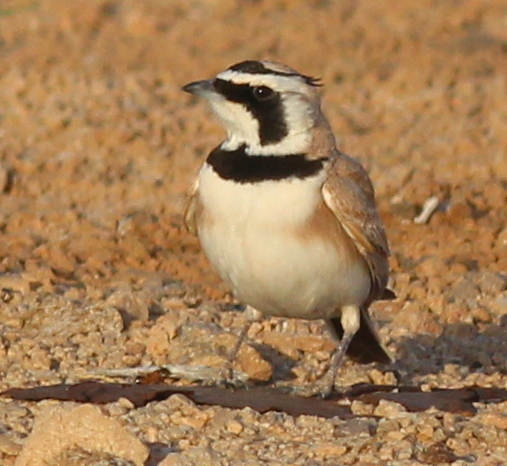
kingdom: Animalia
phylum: Chordata
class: Aves
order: Passeriformes
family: Alaudidae
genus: Eremophila
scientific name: Eremophila bilopha
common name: Temminck's lark
